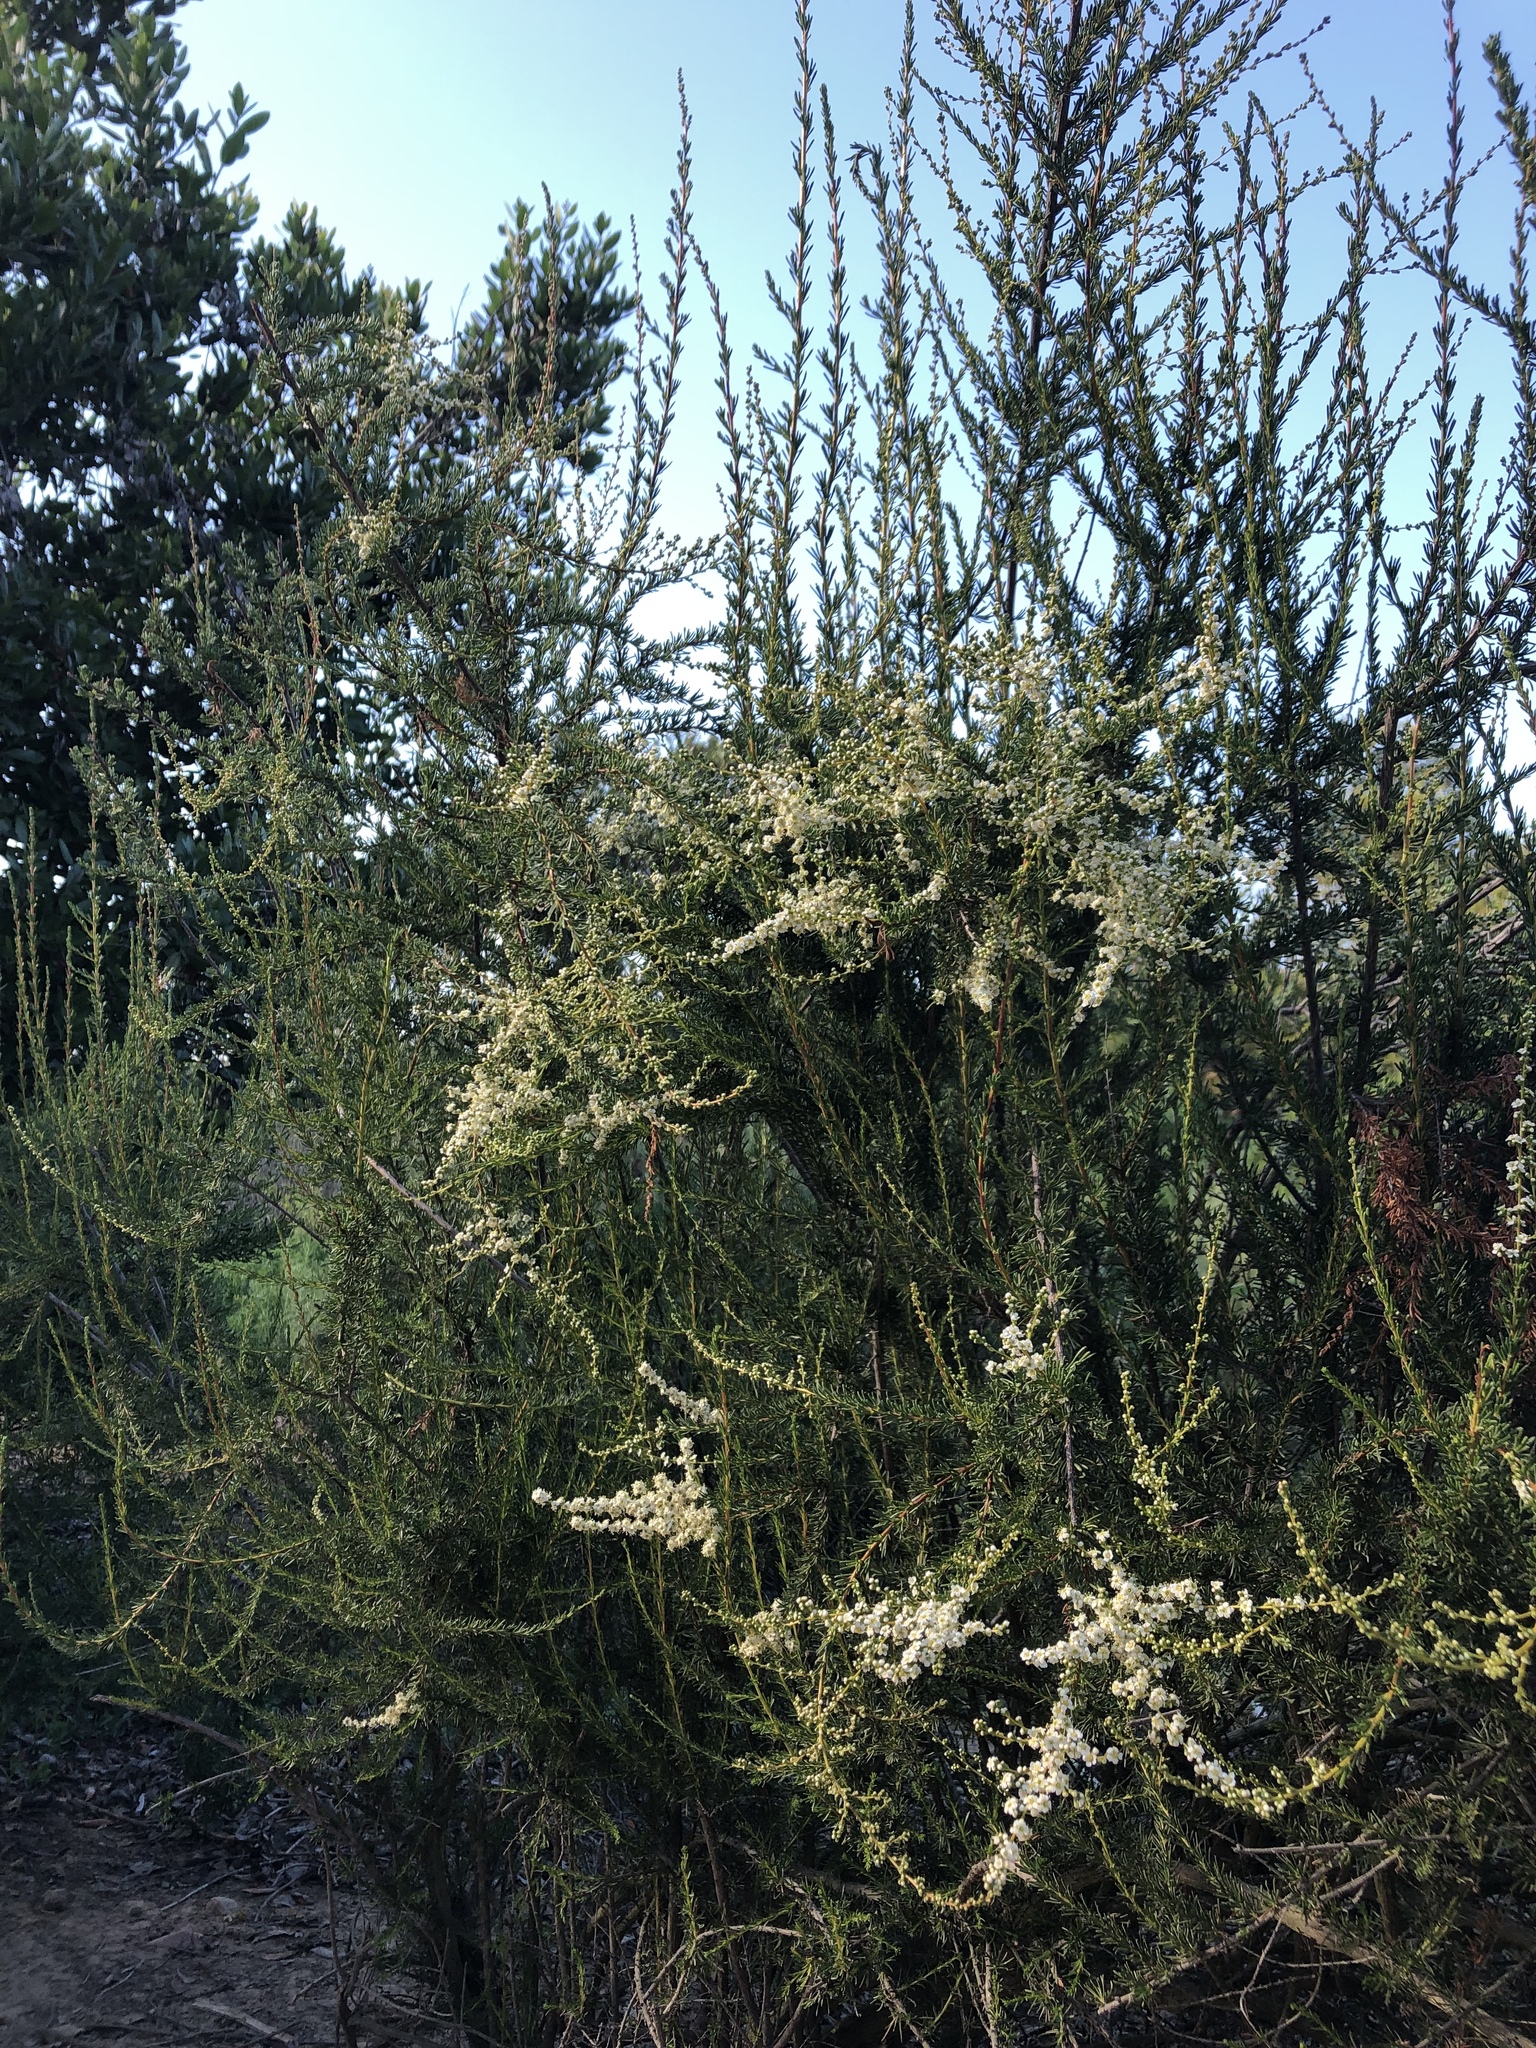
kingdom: Plantae
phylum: Tracheophyta
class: Magnoliopsida
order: Rosales
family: Rosaceae
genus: Adenostoma
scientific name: Adenostoma fasciculatum
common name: Chamise
